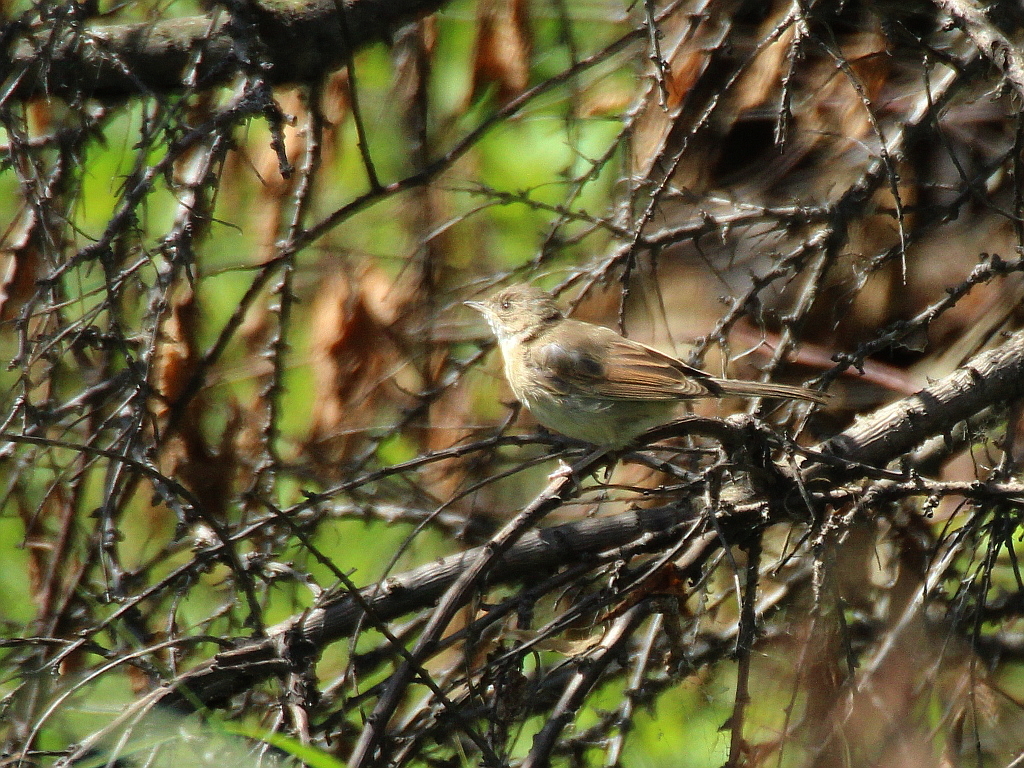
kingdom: Animalia
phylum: Chordata
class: Aves
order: Passeriformes
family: Sylviidae
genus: Sylvia
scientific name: Sylvia communis
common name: Common whitethroat
